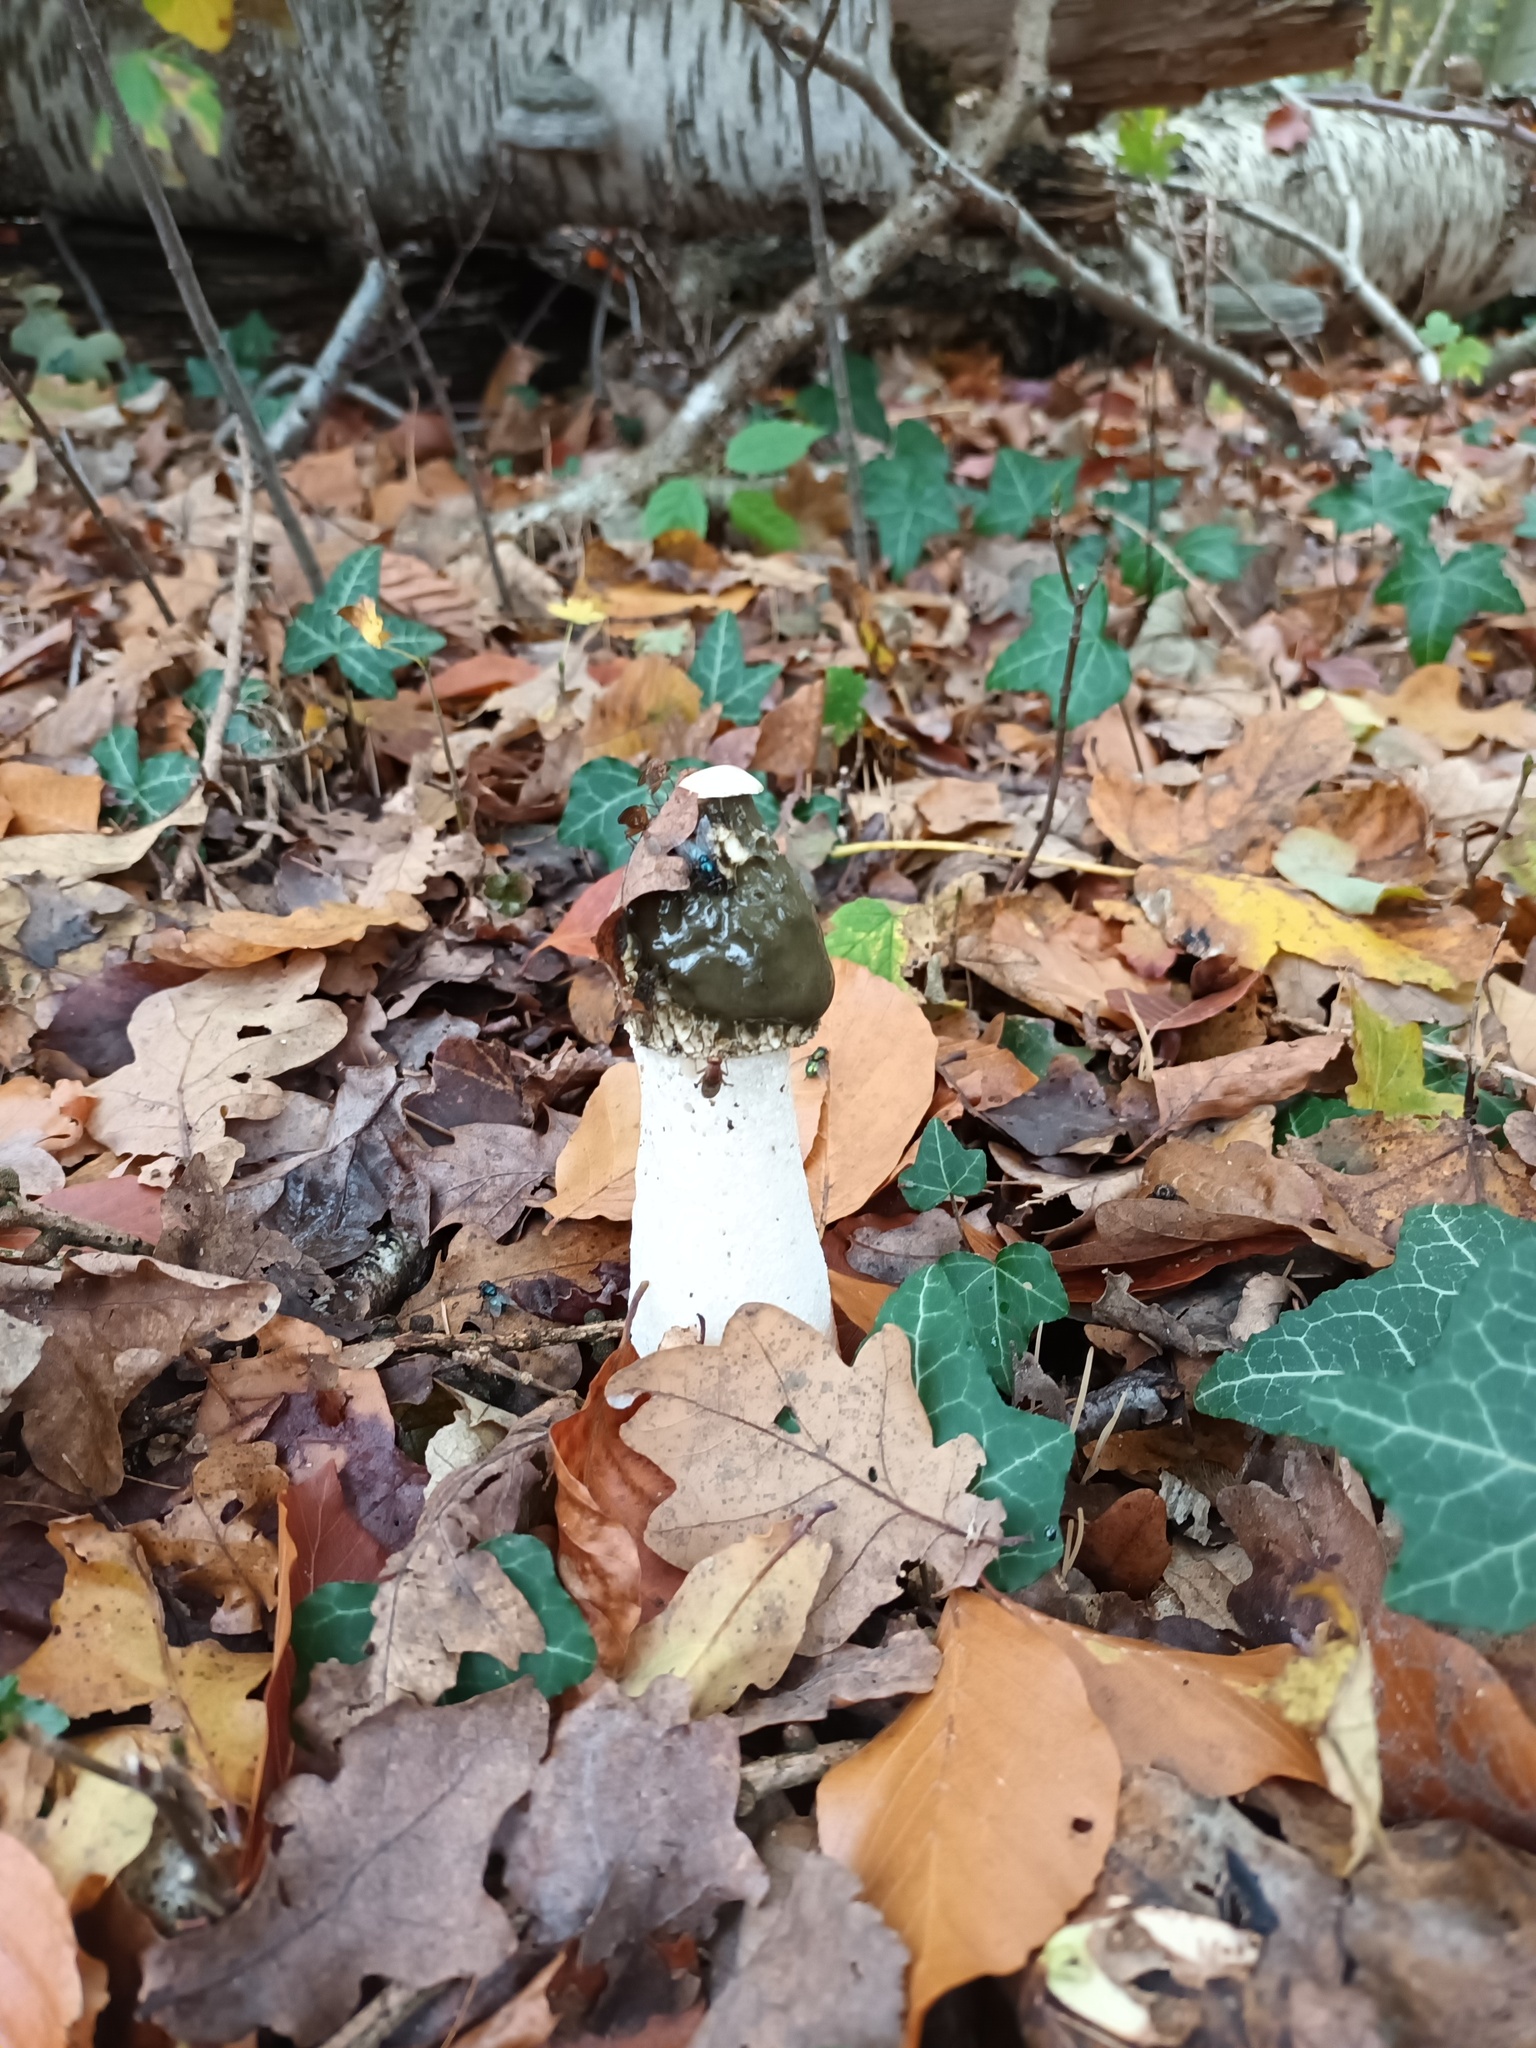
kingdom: Fungi
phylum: Basidiomycota
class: Agaricomycetes
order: Phallales
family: Phallaceae
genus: Phallus
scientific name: Phallus impudicus
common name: Common stinkhorn
